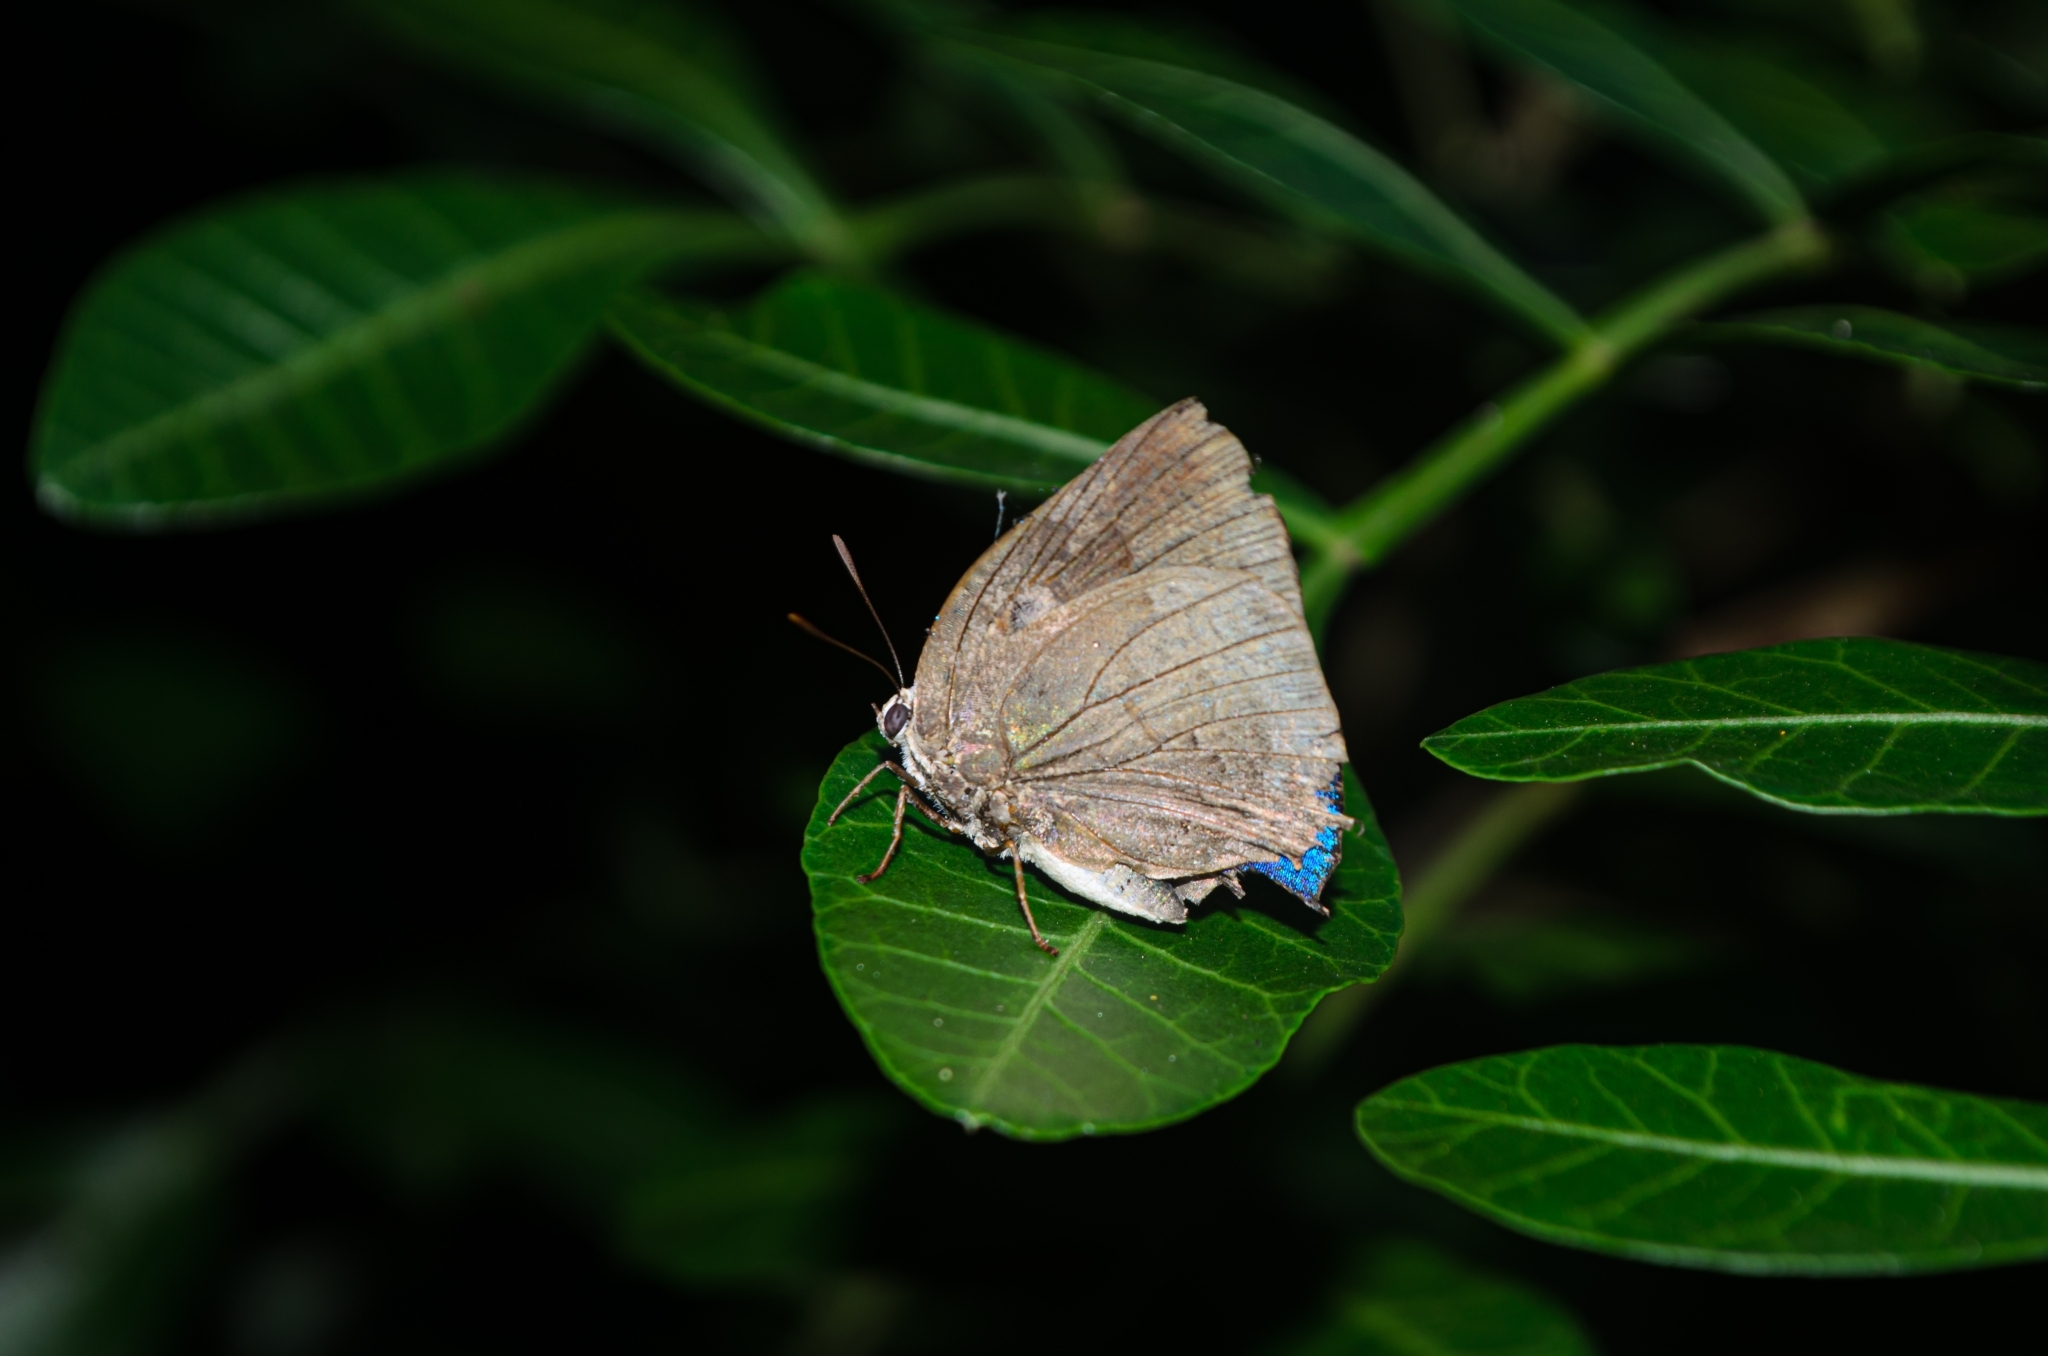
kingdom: Animalia
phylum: Arthropoda
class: Insecta
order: Lepidoptera
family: Lycaenidae
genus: Panthiades
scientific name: Panthiades hebraeus
